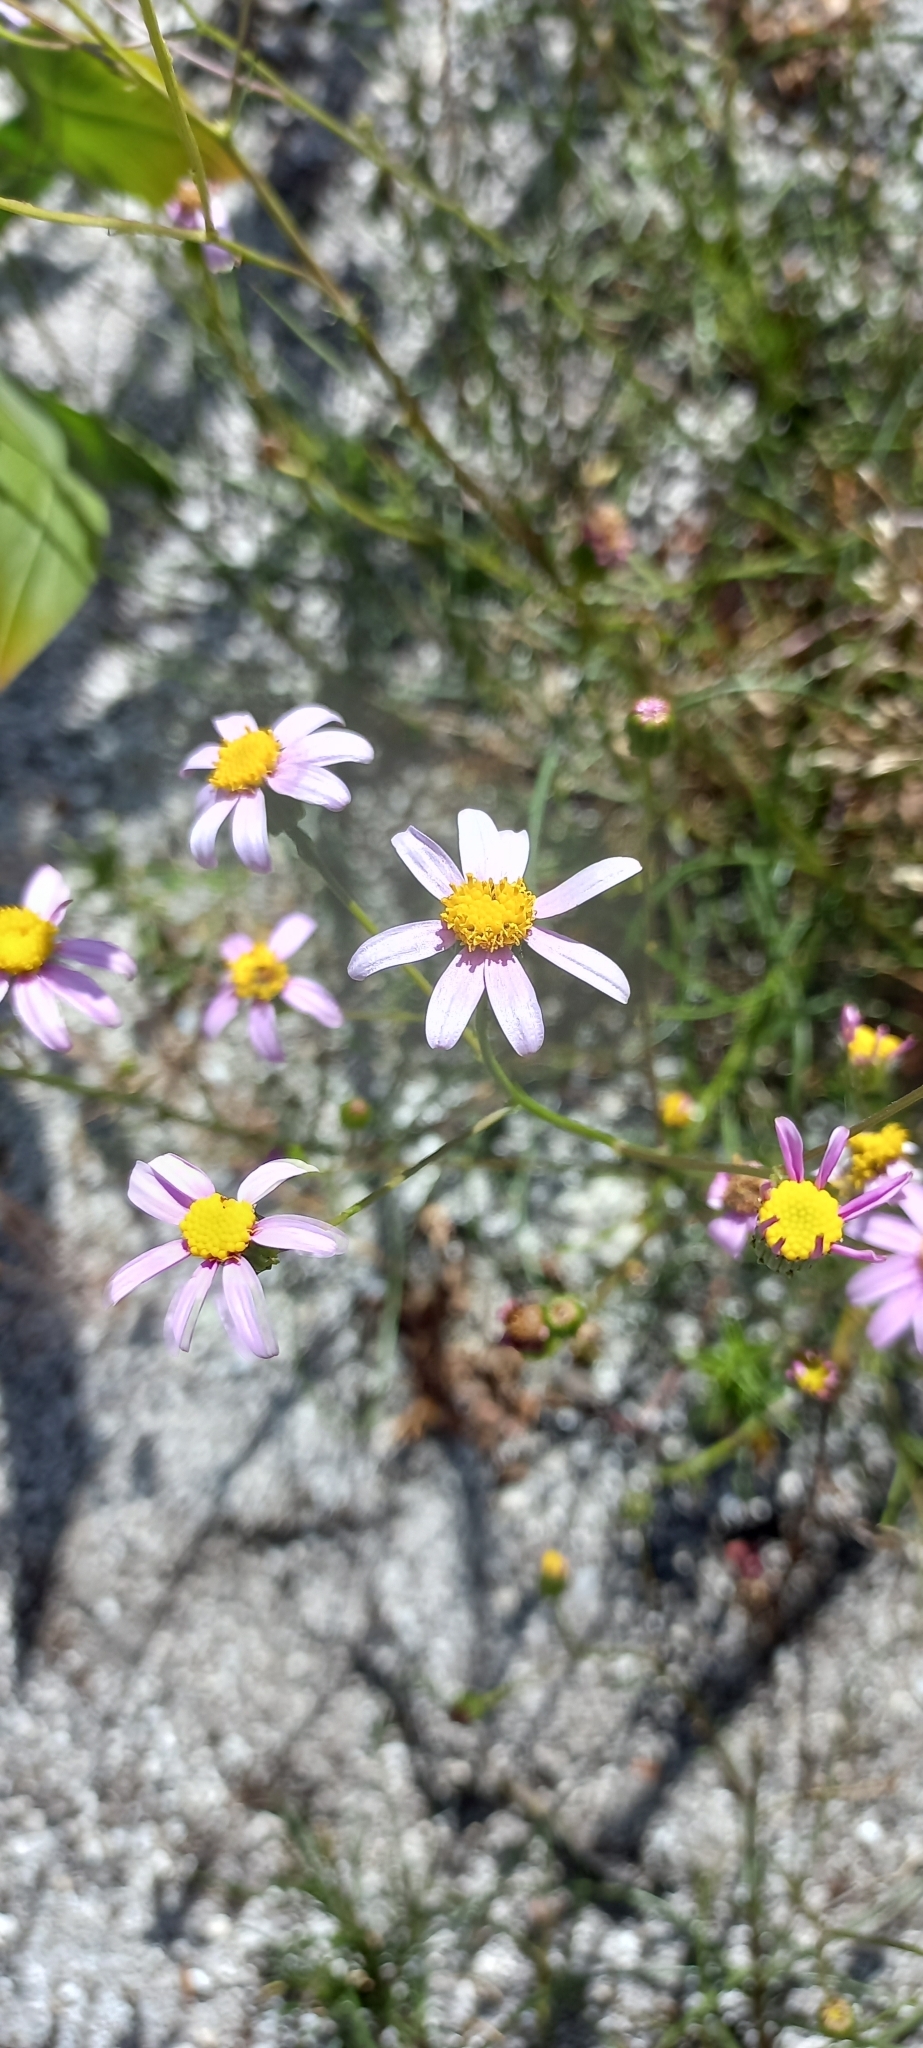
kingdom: Plantae
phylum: Tracheophyta
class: Magnoliopsida
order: Asterales
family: Asteraceae
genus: Senecio
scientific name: Senecio umbellatus
